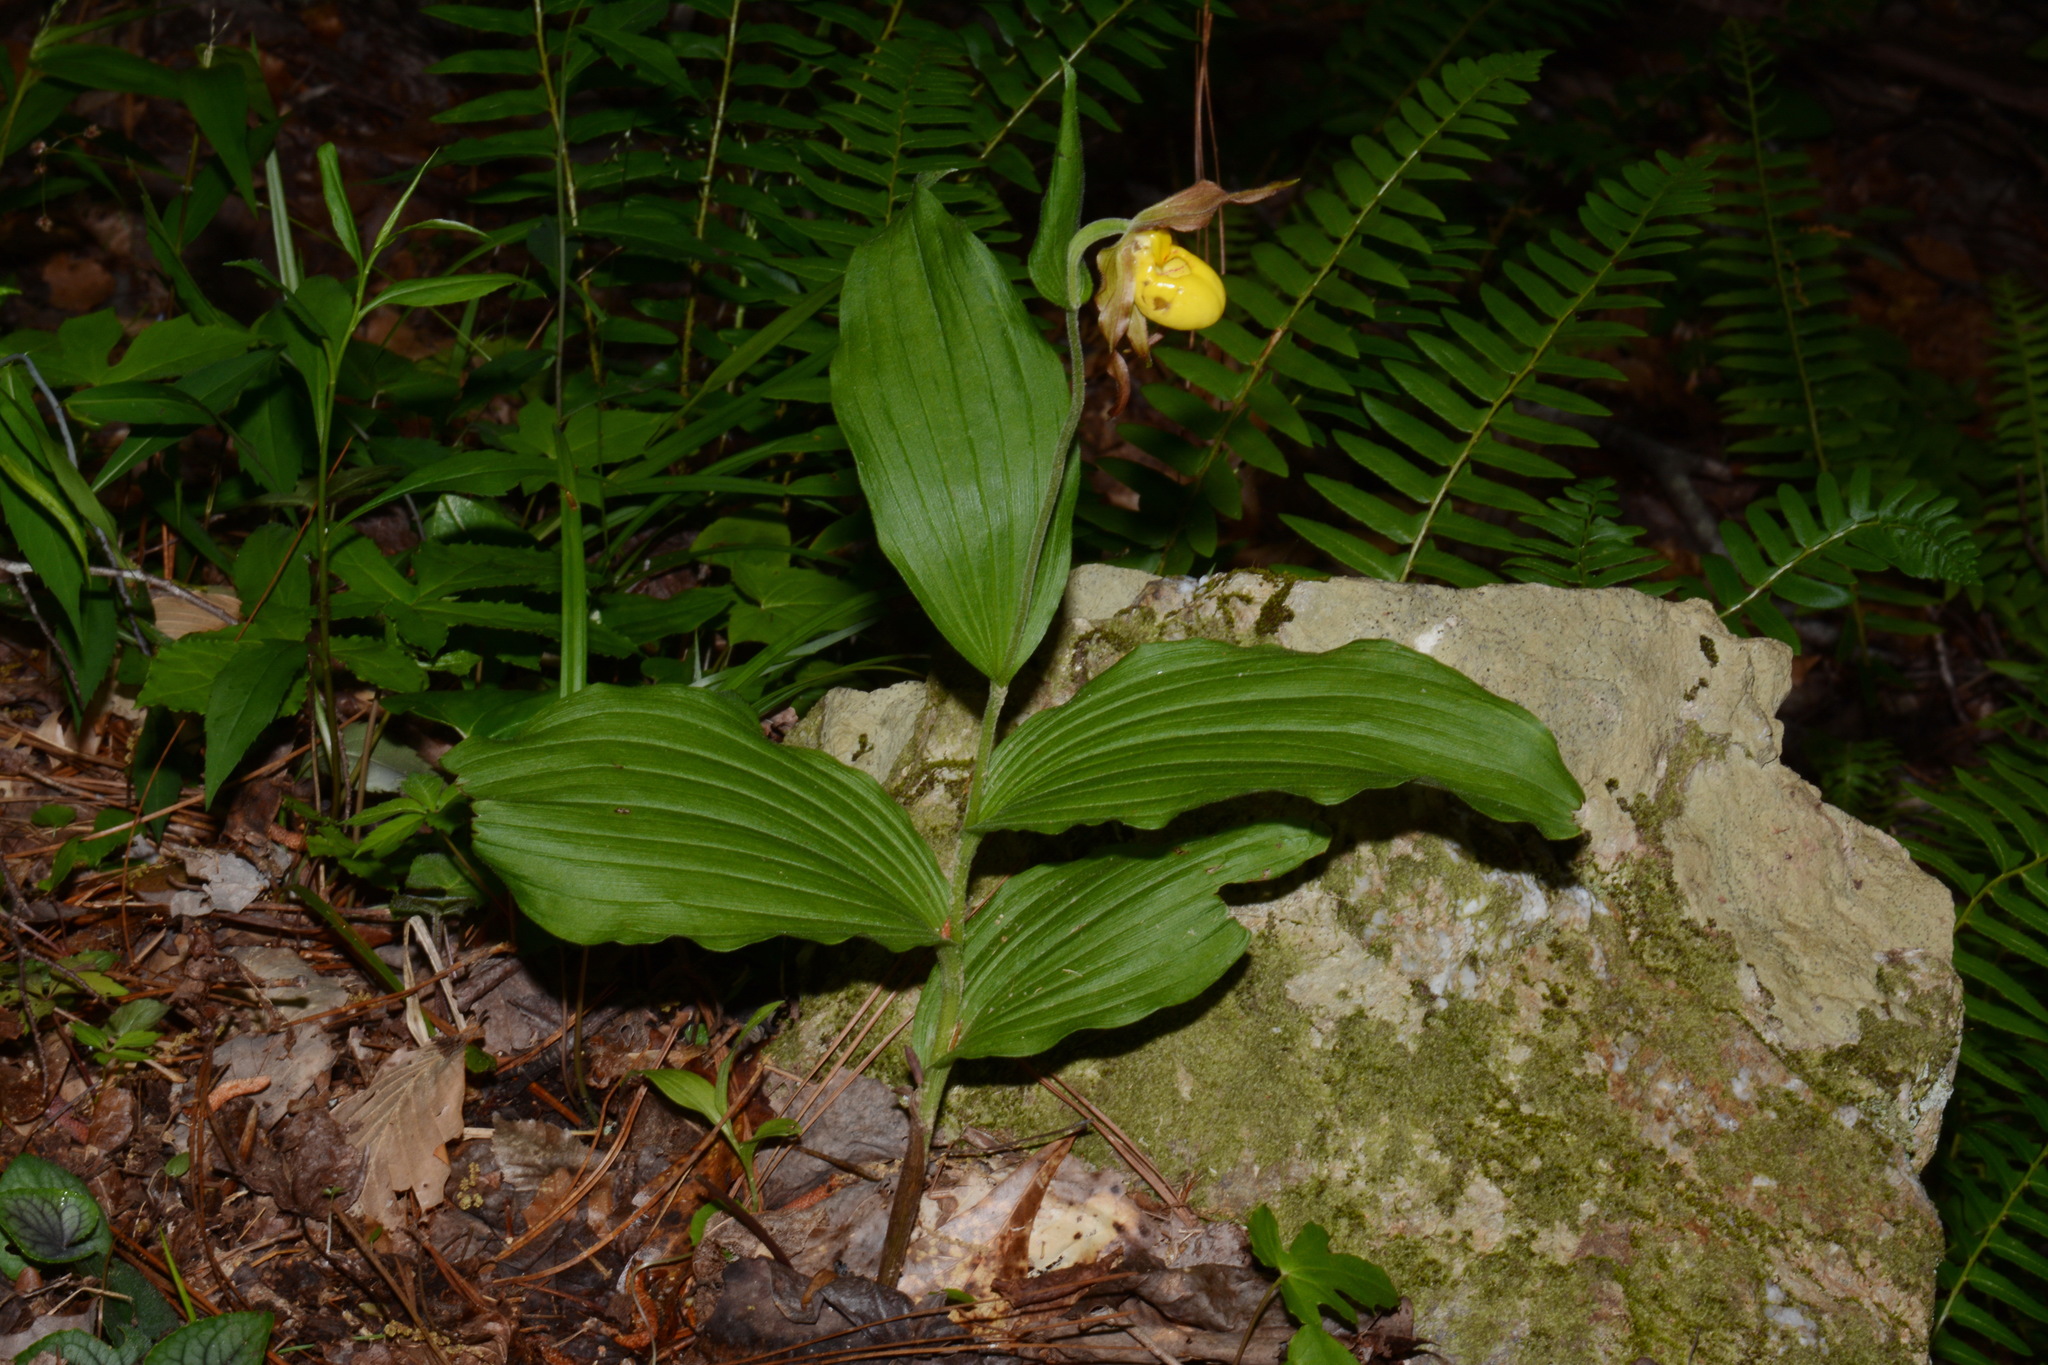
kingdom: Plantae
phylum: Tracheophyta
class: Liliopsida
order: Asparagales
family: Orchidaceae
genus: Cypripedium
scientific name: Cypripedium parviflorum
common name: American yellow lady's-slipper
